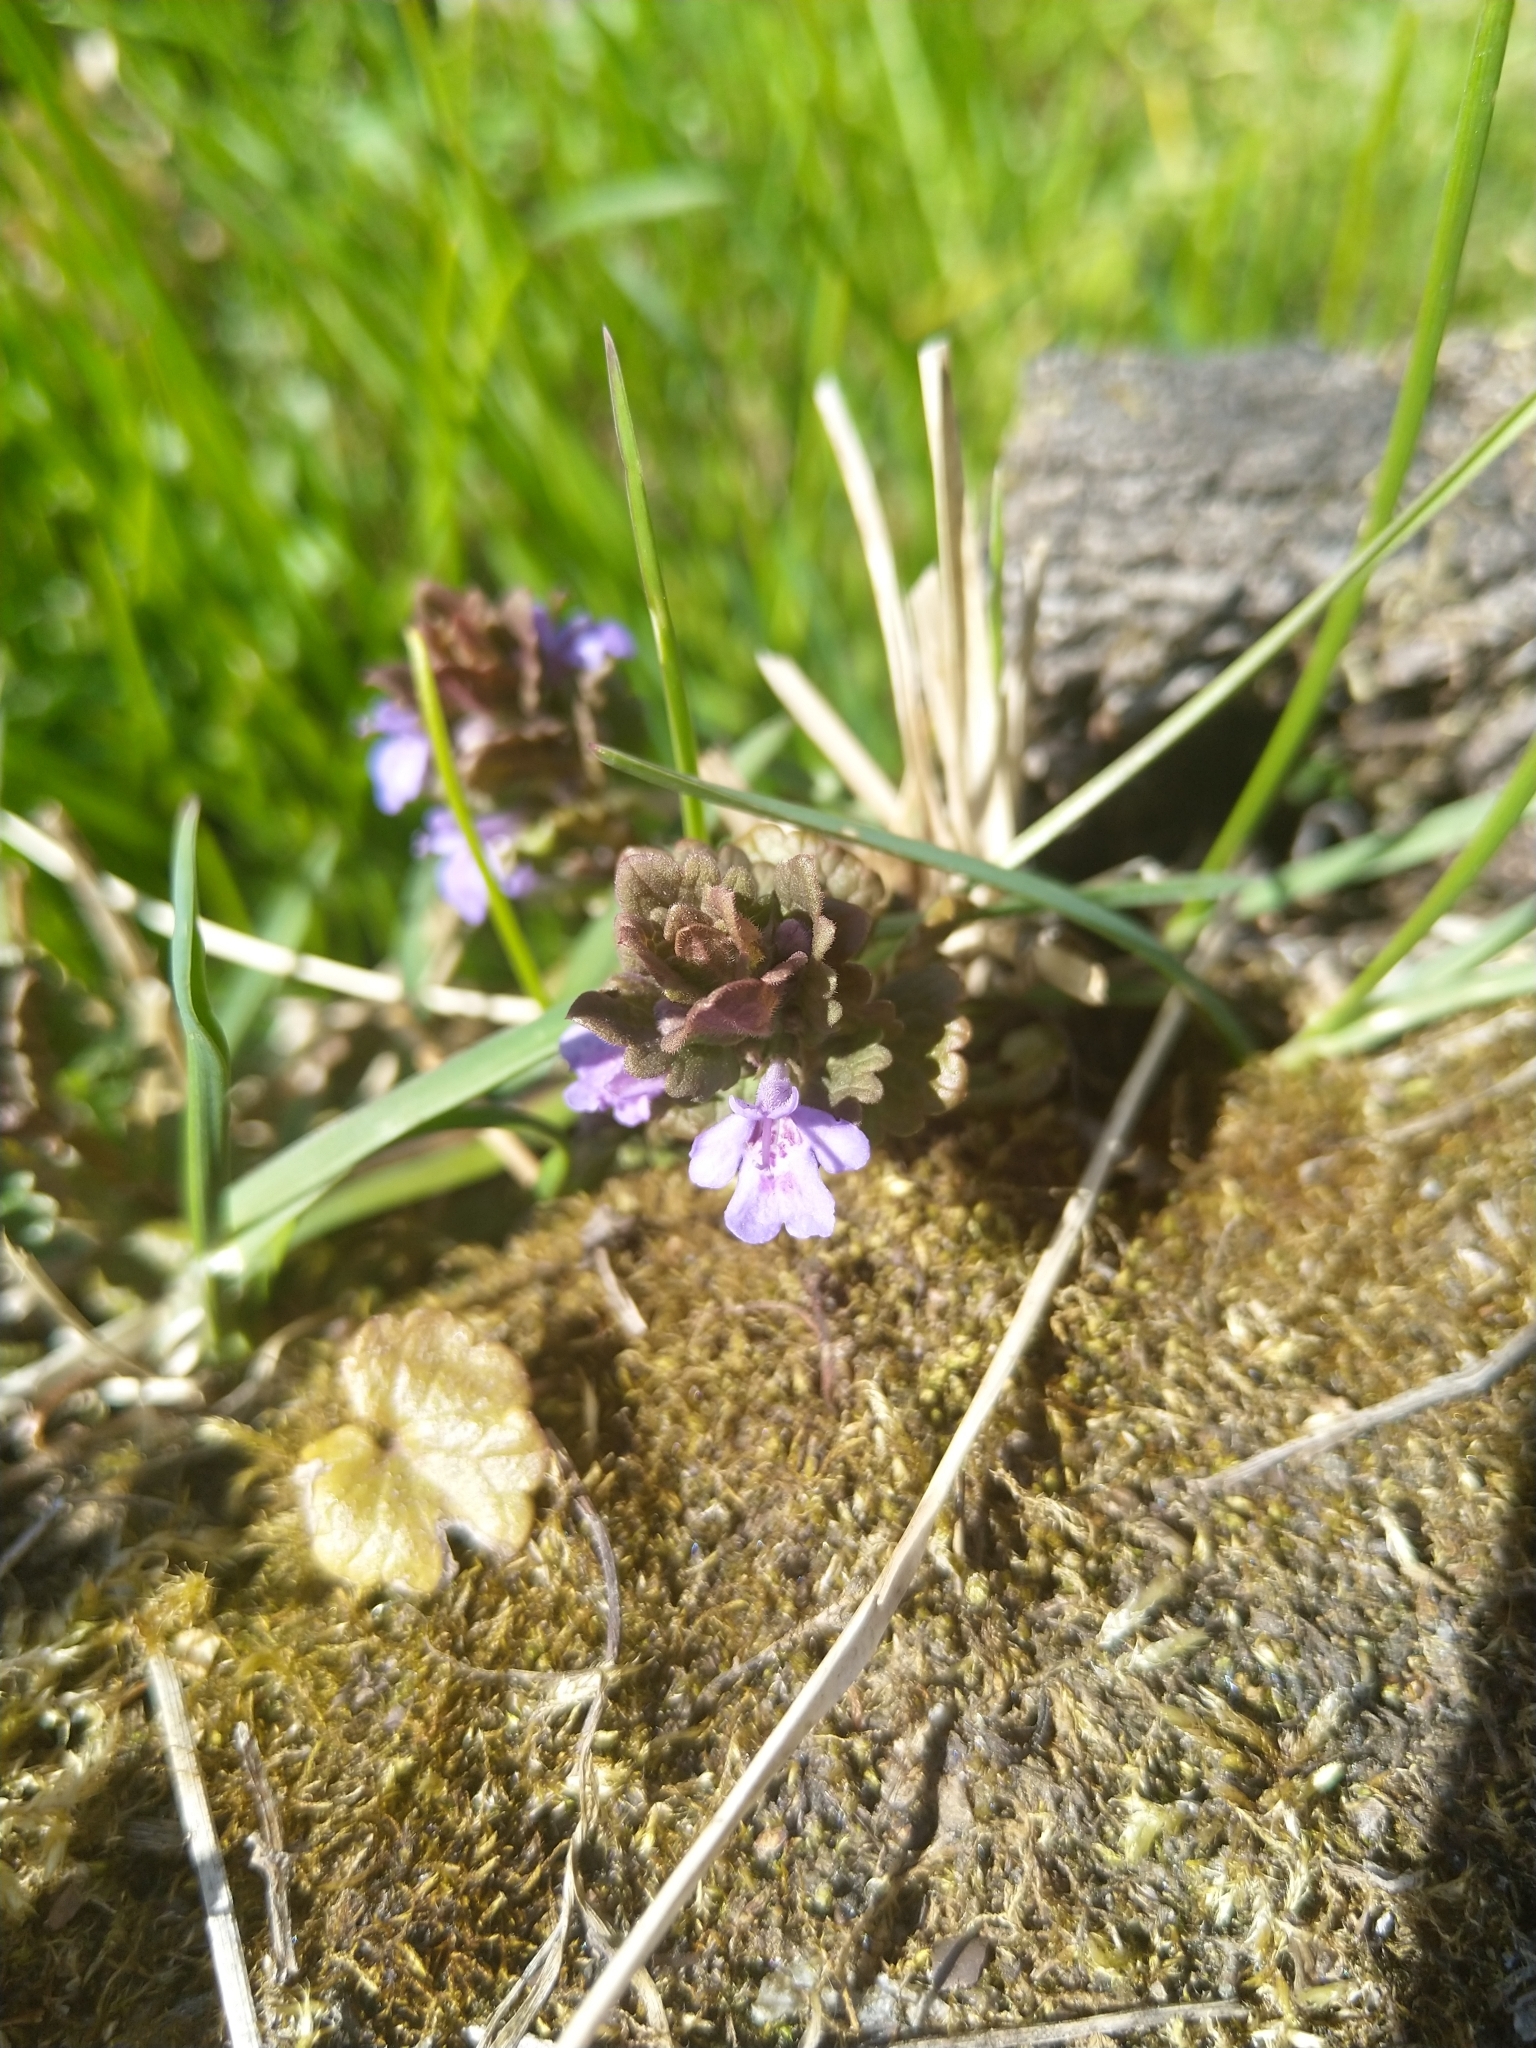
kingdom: Plantae
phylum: Tracheophyta
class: Magnoliopsida
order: Lamiales
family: Lamiaceae
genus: Glechoma
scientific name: Glechoma hederacea
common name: Ground ivy
